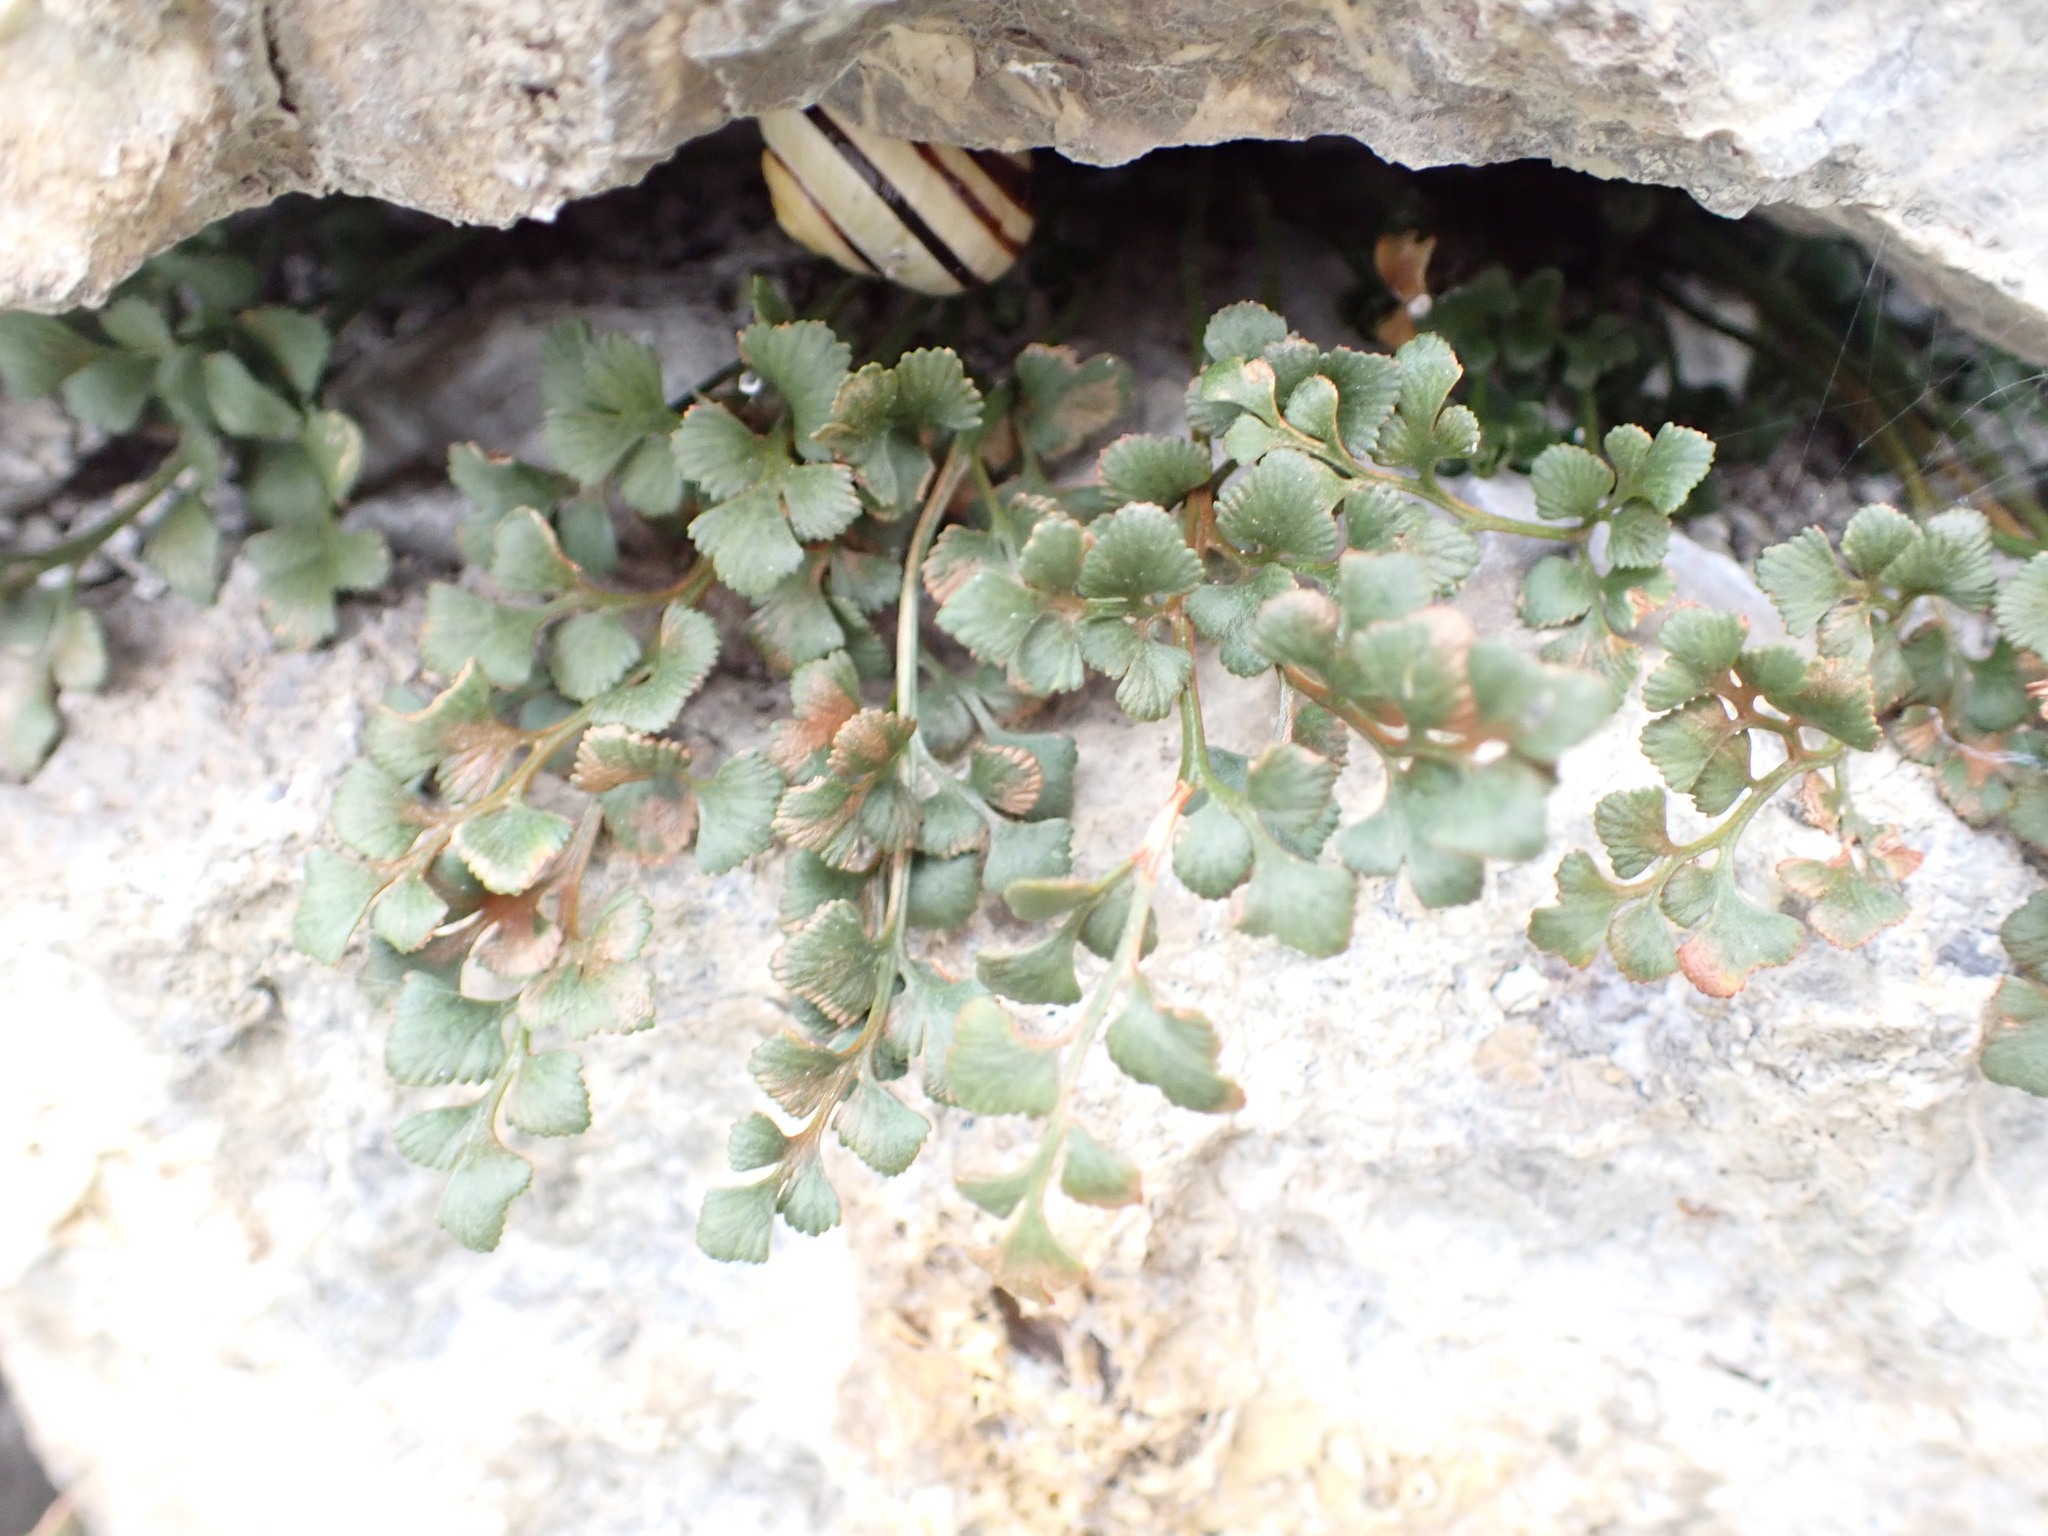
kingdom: Plantae
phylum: Tracheophyta
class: Polypodiopsida
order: Polypodiales
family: Aspleniaceae
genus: Asplenium
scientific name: Asplenium ruta-muraria
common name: Wall-rue
